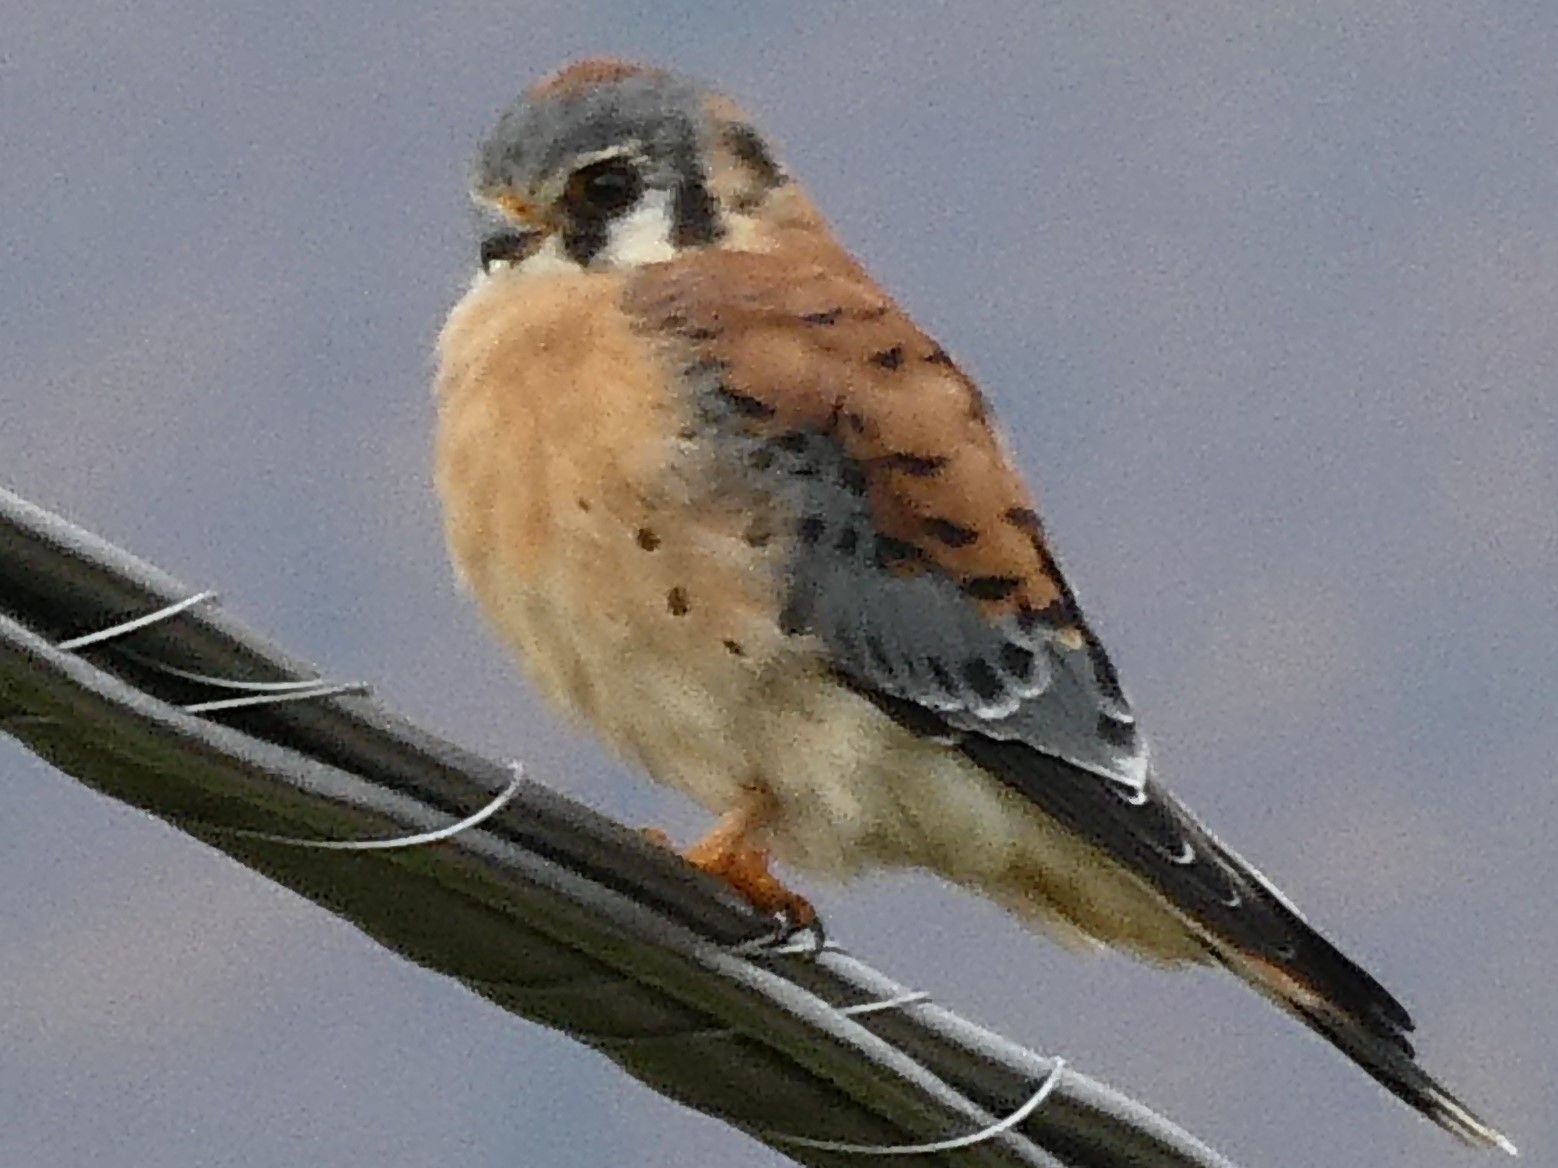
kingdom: Animalia
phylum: Chordata
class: Aves
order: Falconiformes
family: Falconidae
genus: Falco
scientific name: Falco sparverius
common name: American kestrel
